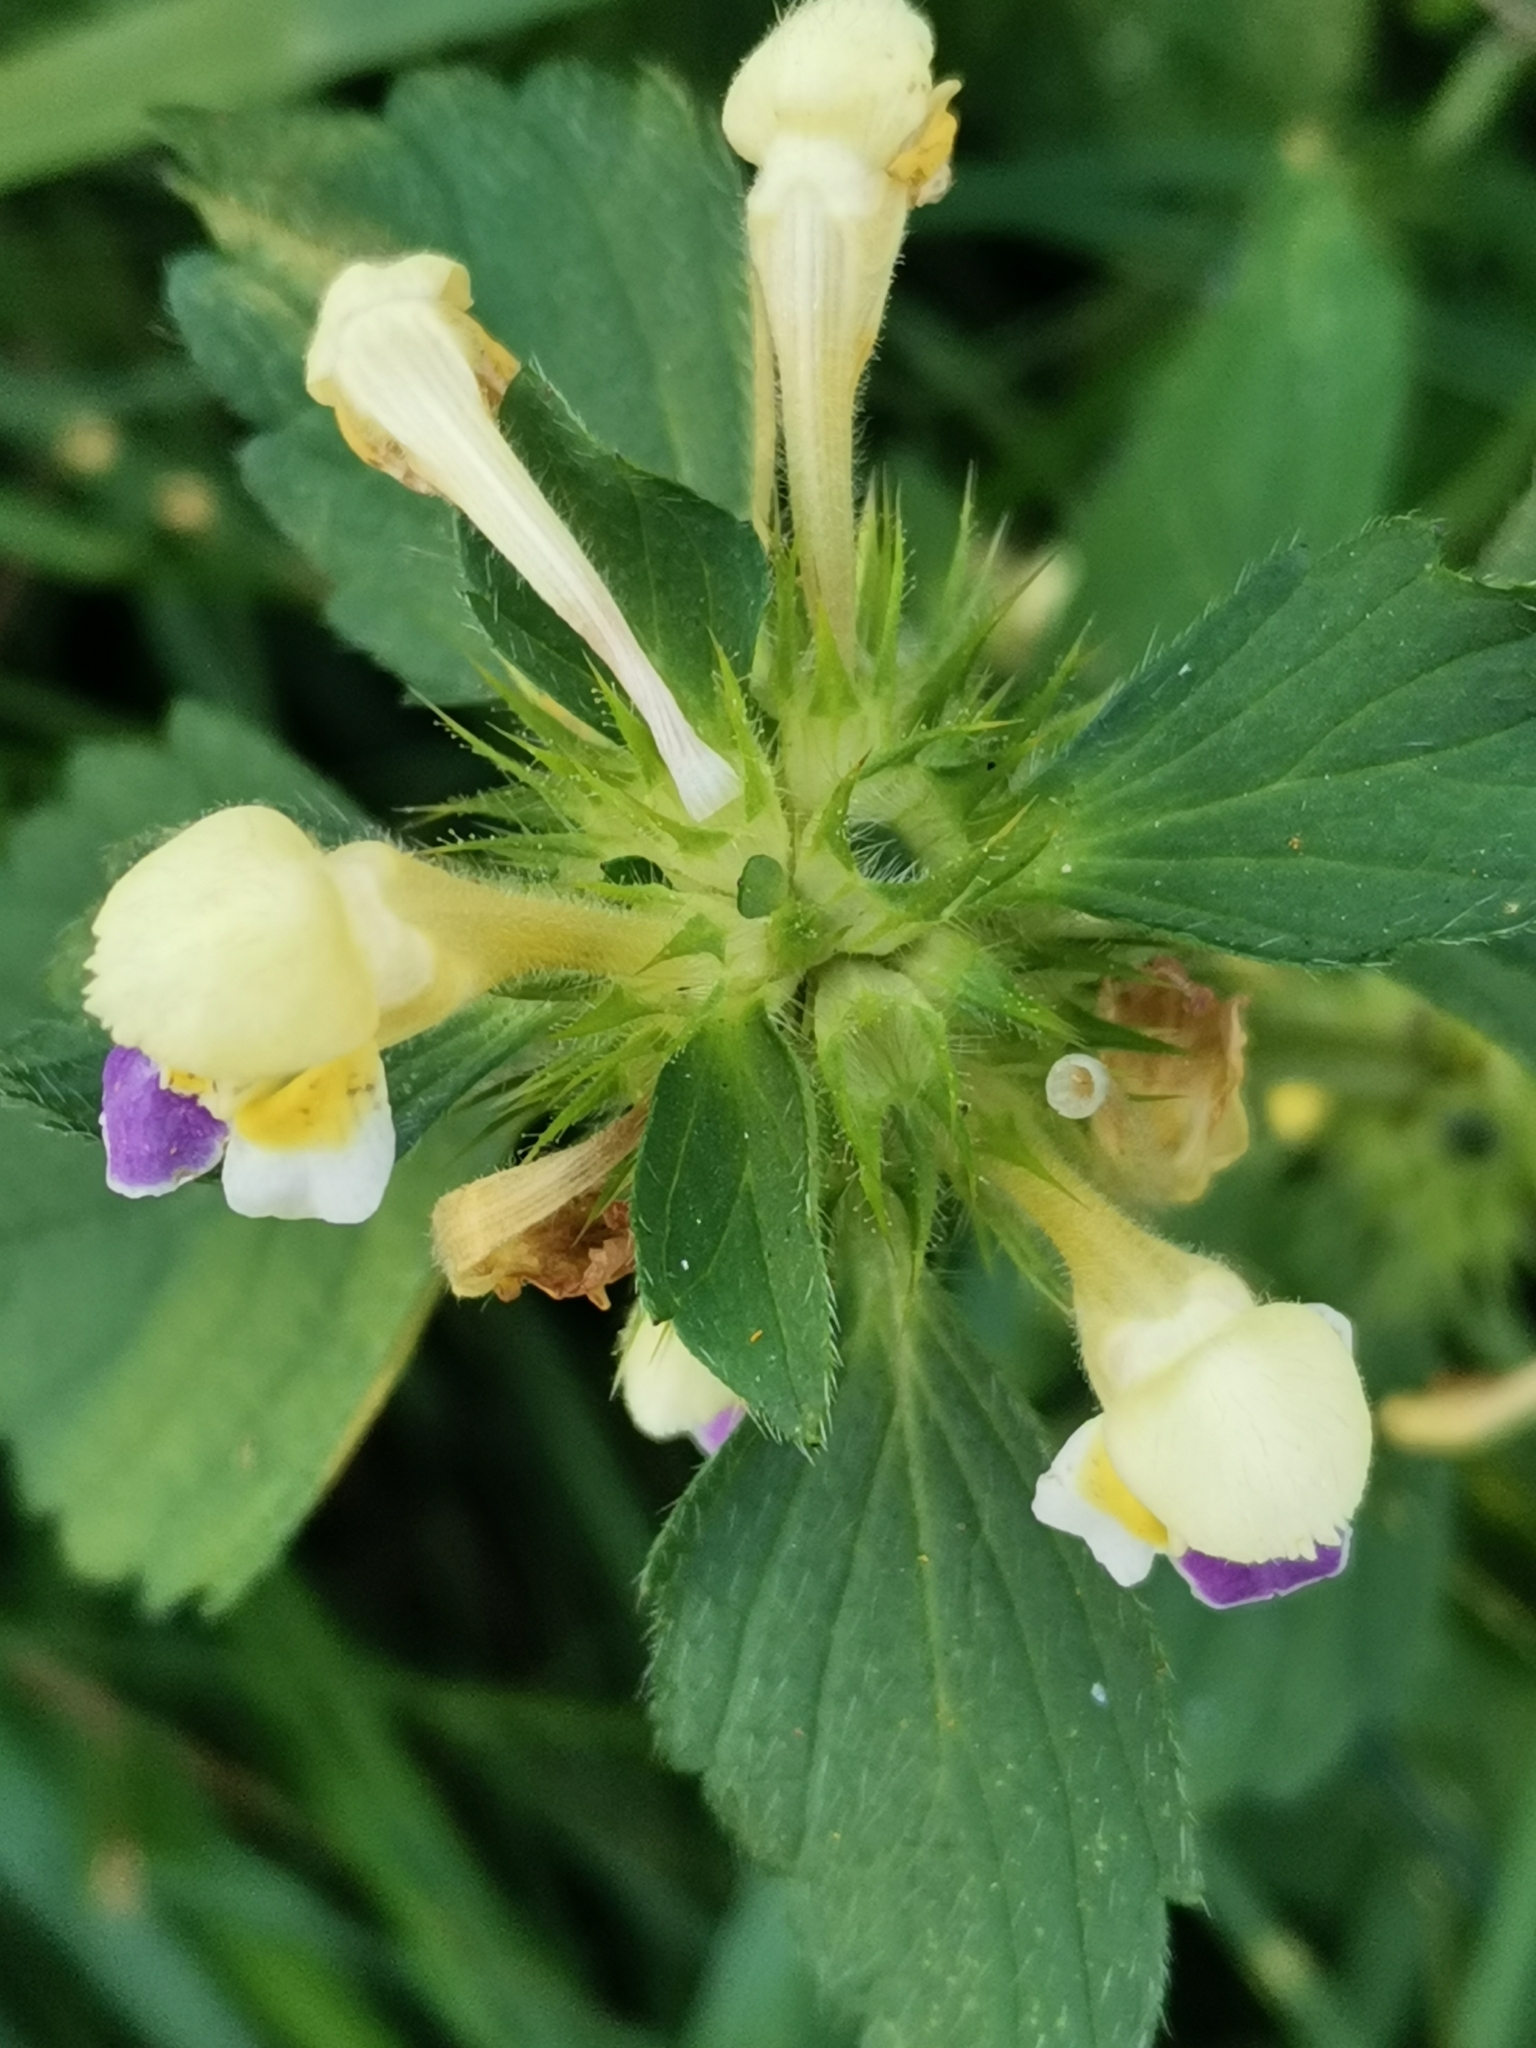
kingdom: Plantae
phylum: Tracheophyta
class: Magnoliopsida
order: Lamiales
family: Lamiaceae
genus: Galeopsis
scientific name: Galeopsis speciosa
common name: Large-flowered hemp-nettle
